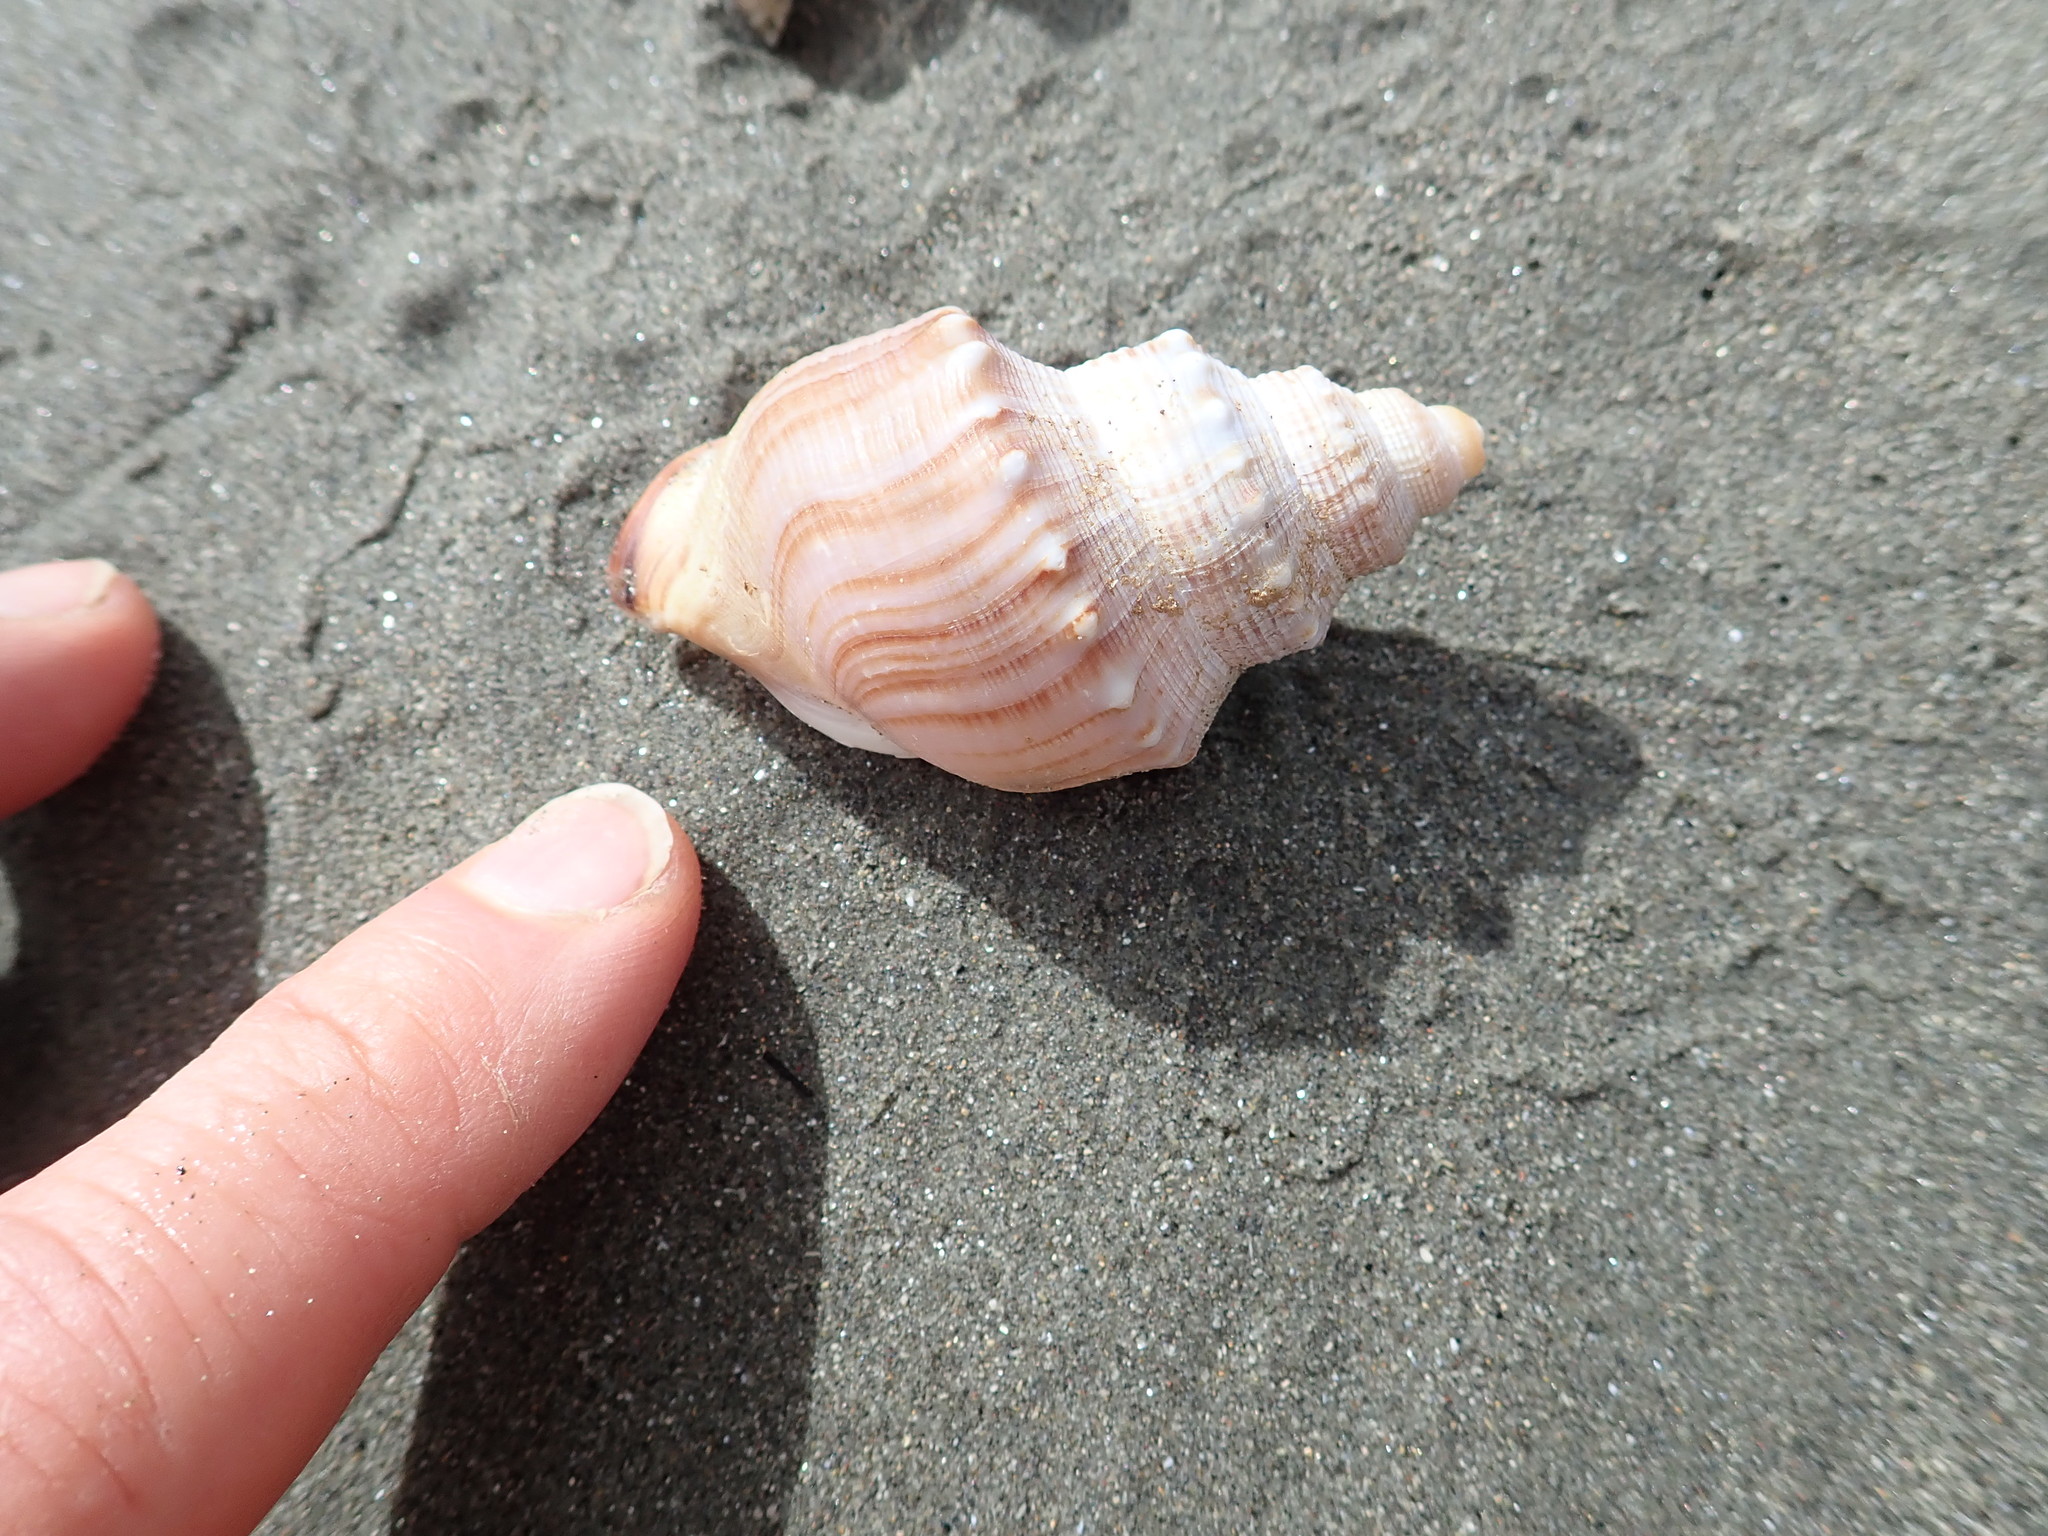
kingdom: Animalia
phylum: Mollusca
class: Gastropoda
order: Littorinimorpha
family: Struthiolariidae
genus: Struthiolaria
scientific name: Struthiolaria papulosa
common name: Large ostrich foot
